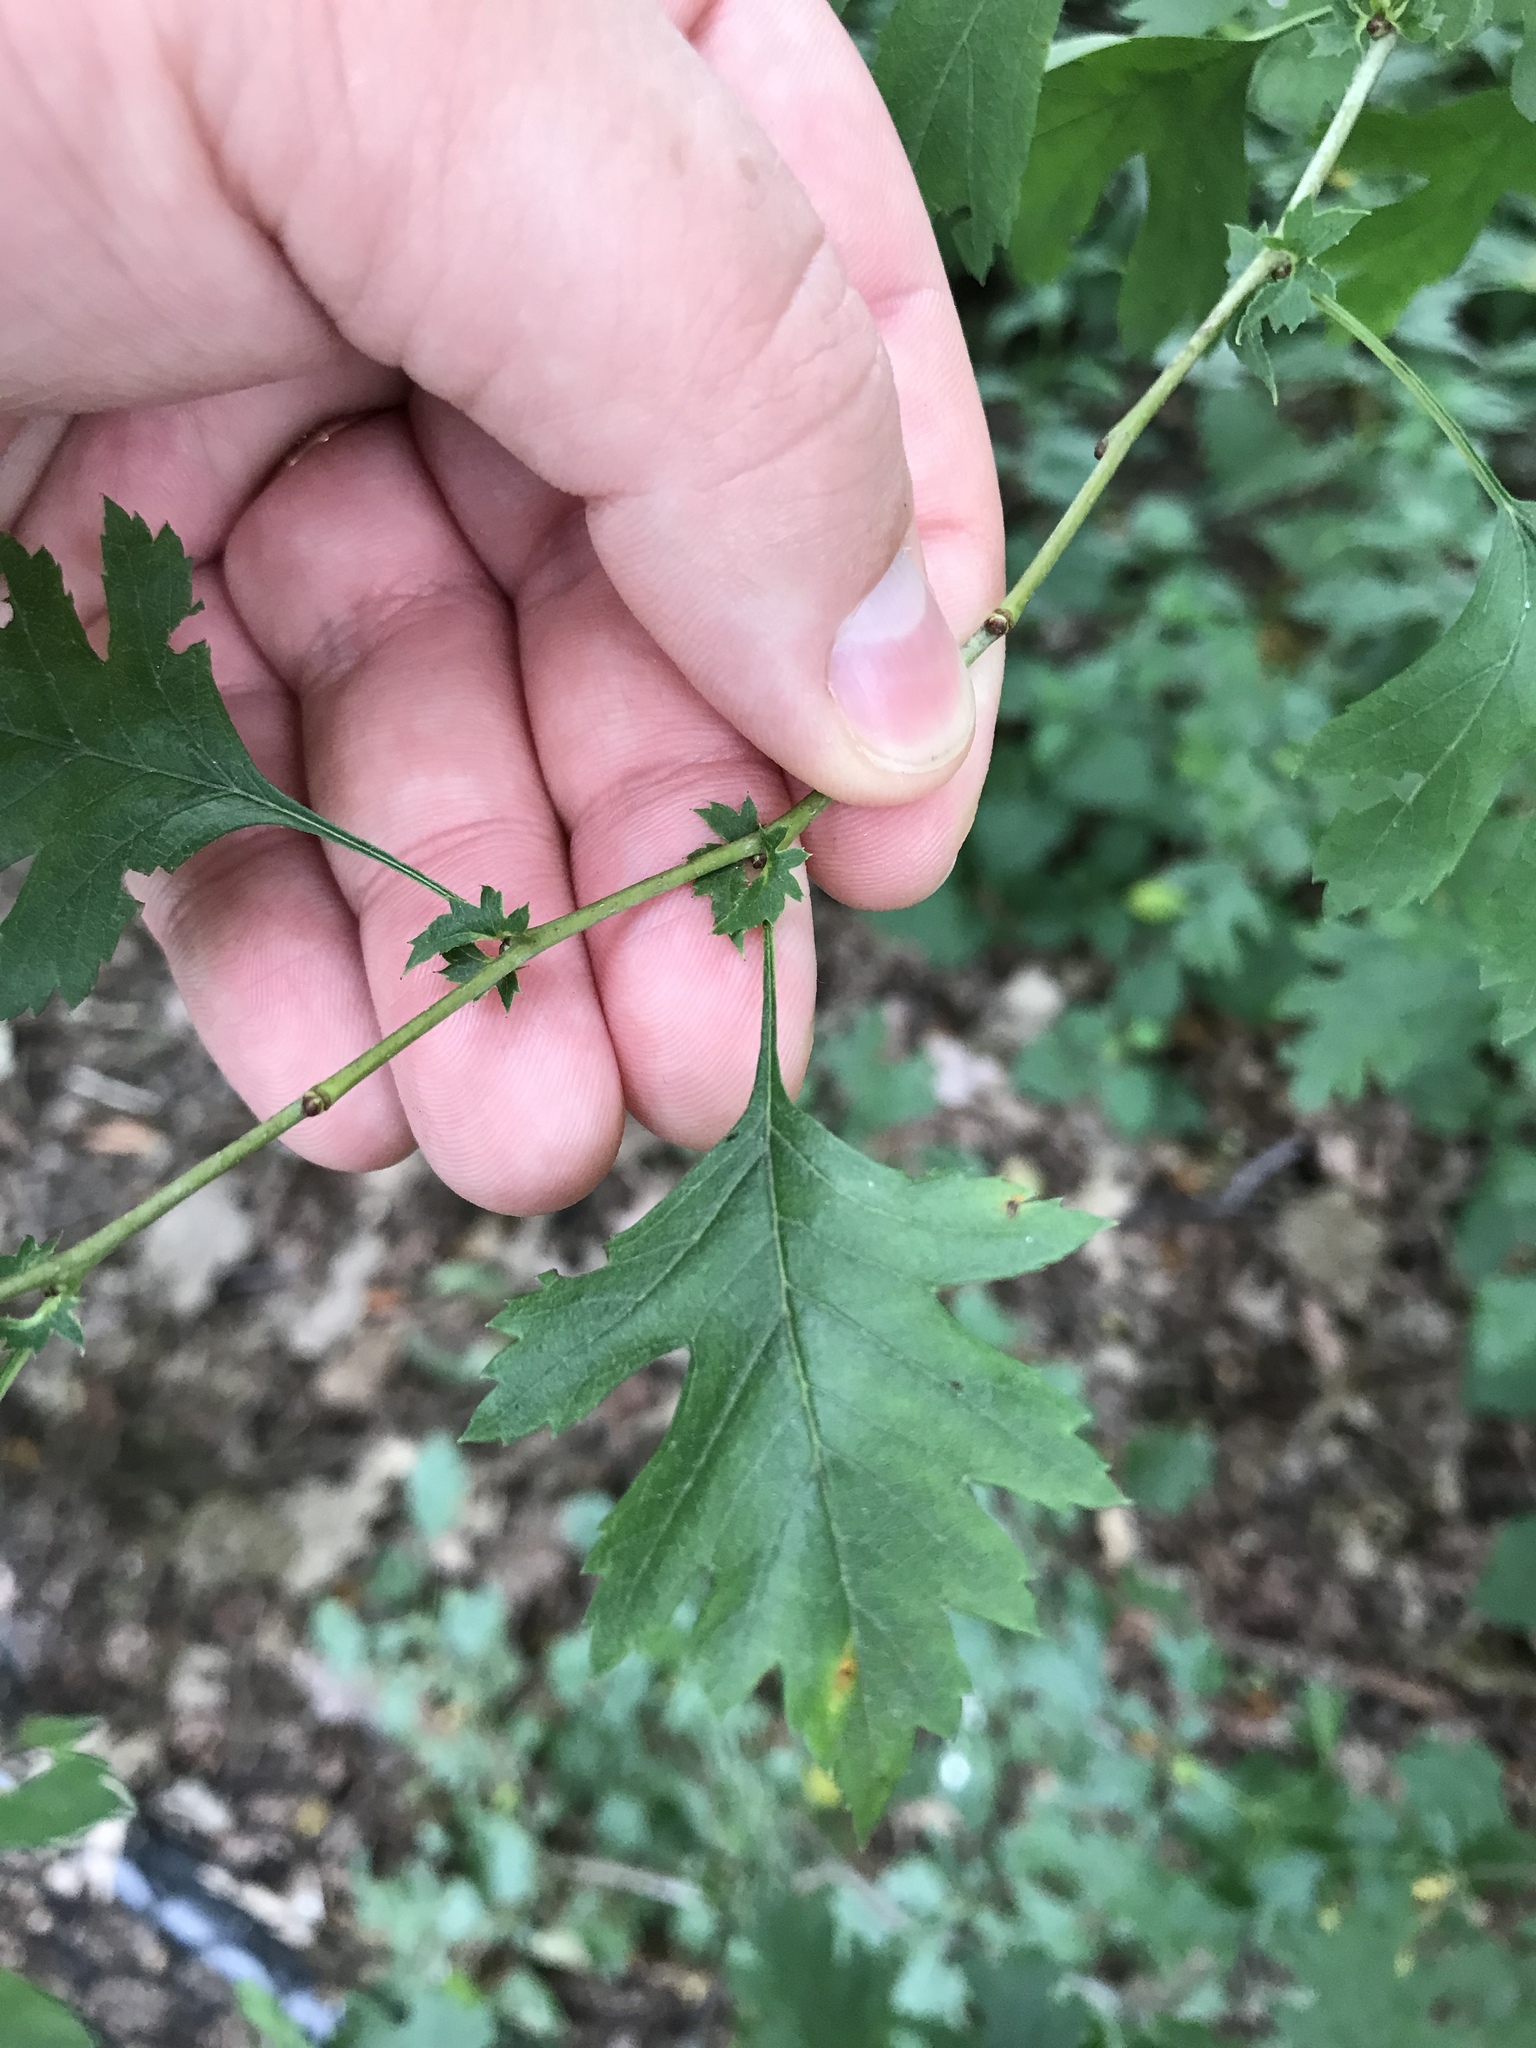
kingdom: Fungi
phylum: Basidiomycota
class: Pucciniomycetes
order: Pucciniales
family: Gymnosporangiaceae
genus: Gymnosporangium
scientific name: Gymnosporangium globosum
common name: Juniper-hawthorn rust
